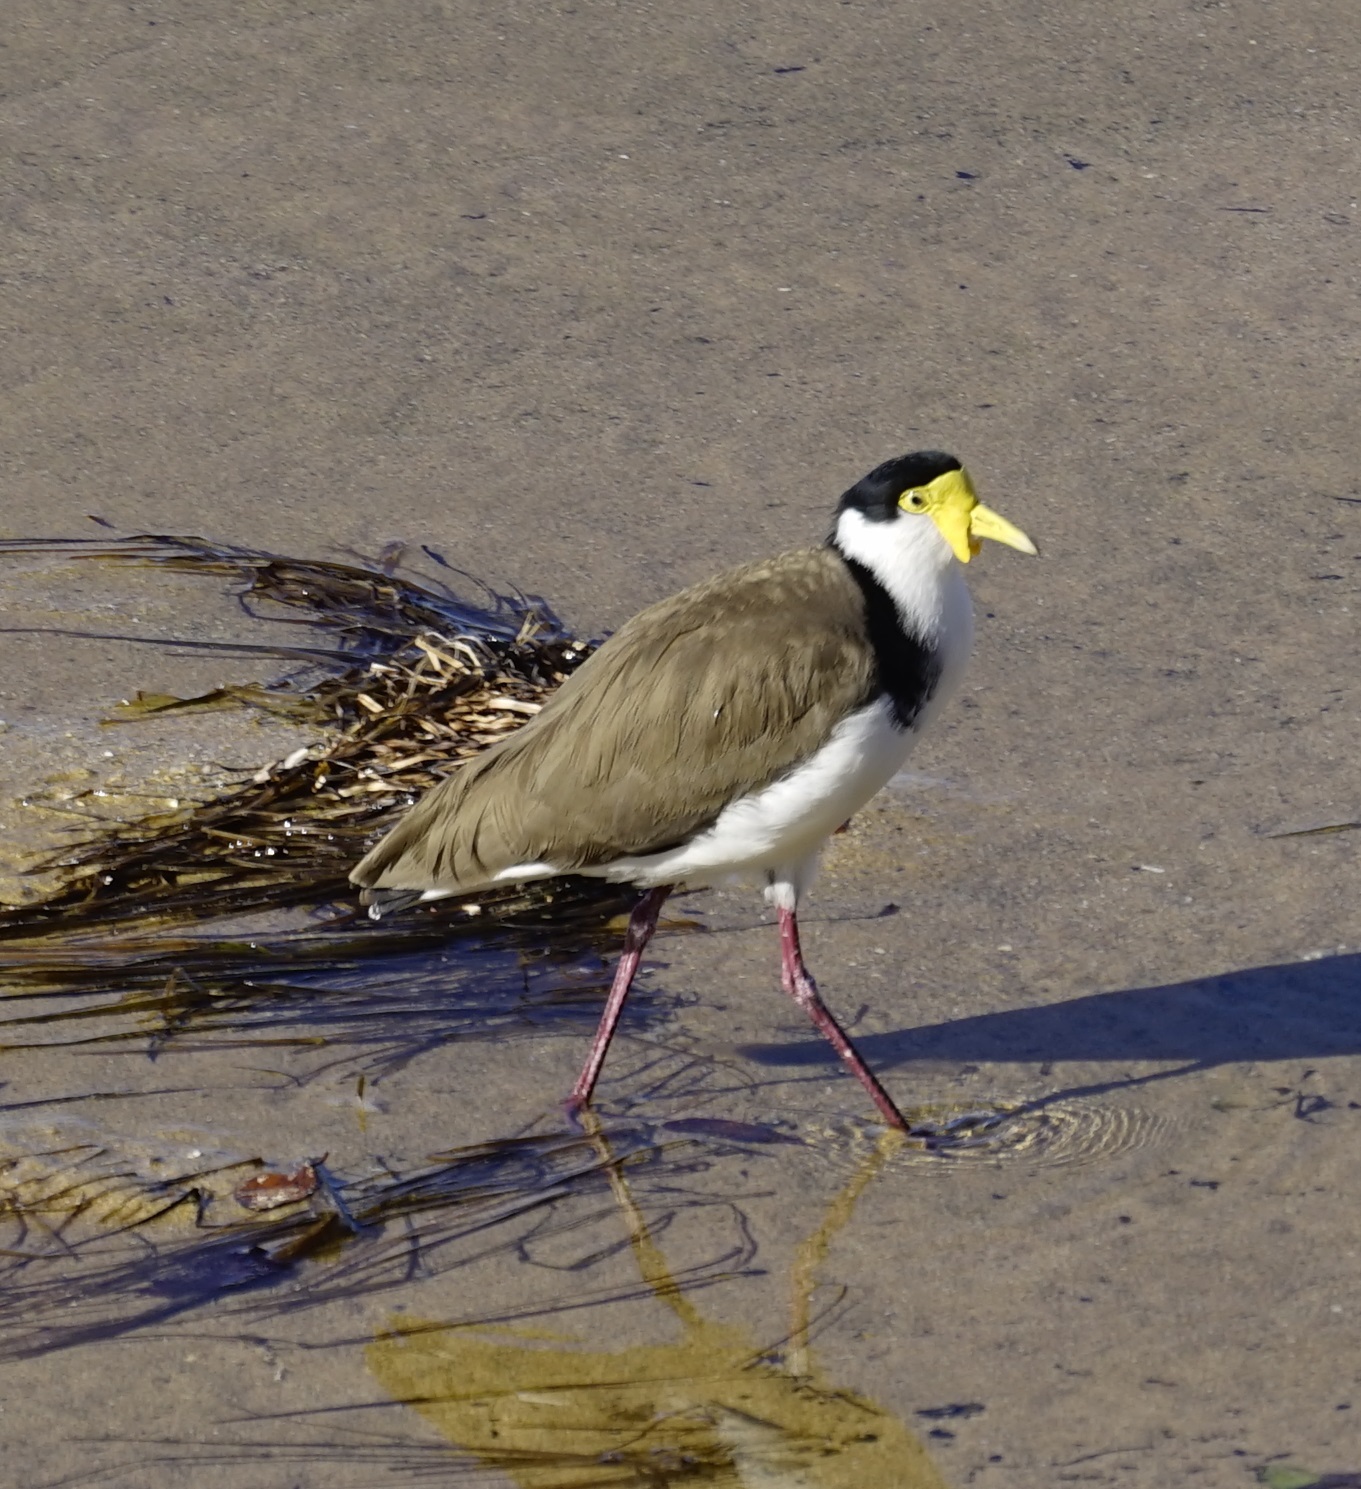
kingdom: Animalia
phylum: Chordata
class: Aves
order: Charadriiformes
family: Charadriidae
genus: Vanellus
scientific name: Vanellus miles
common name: Masked lapwing
